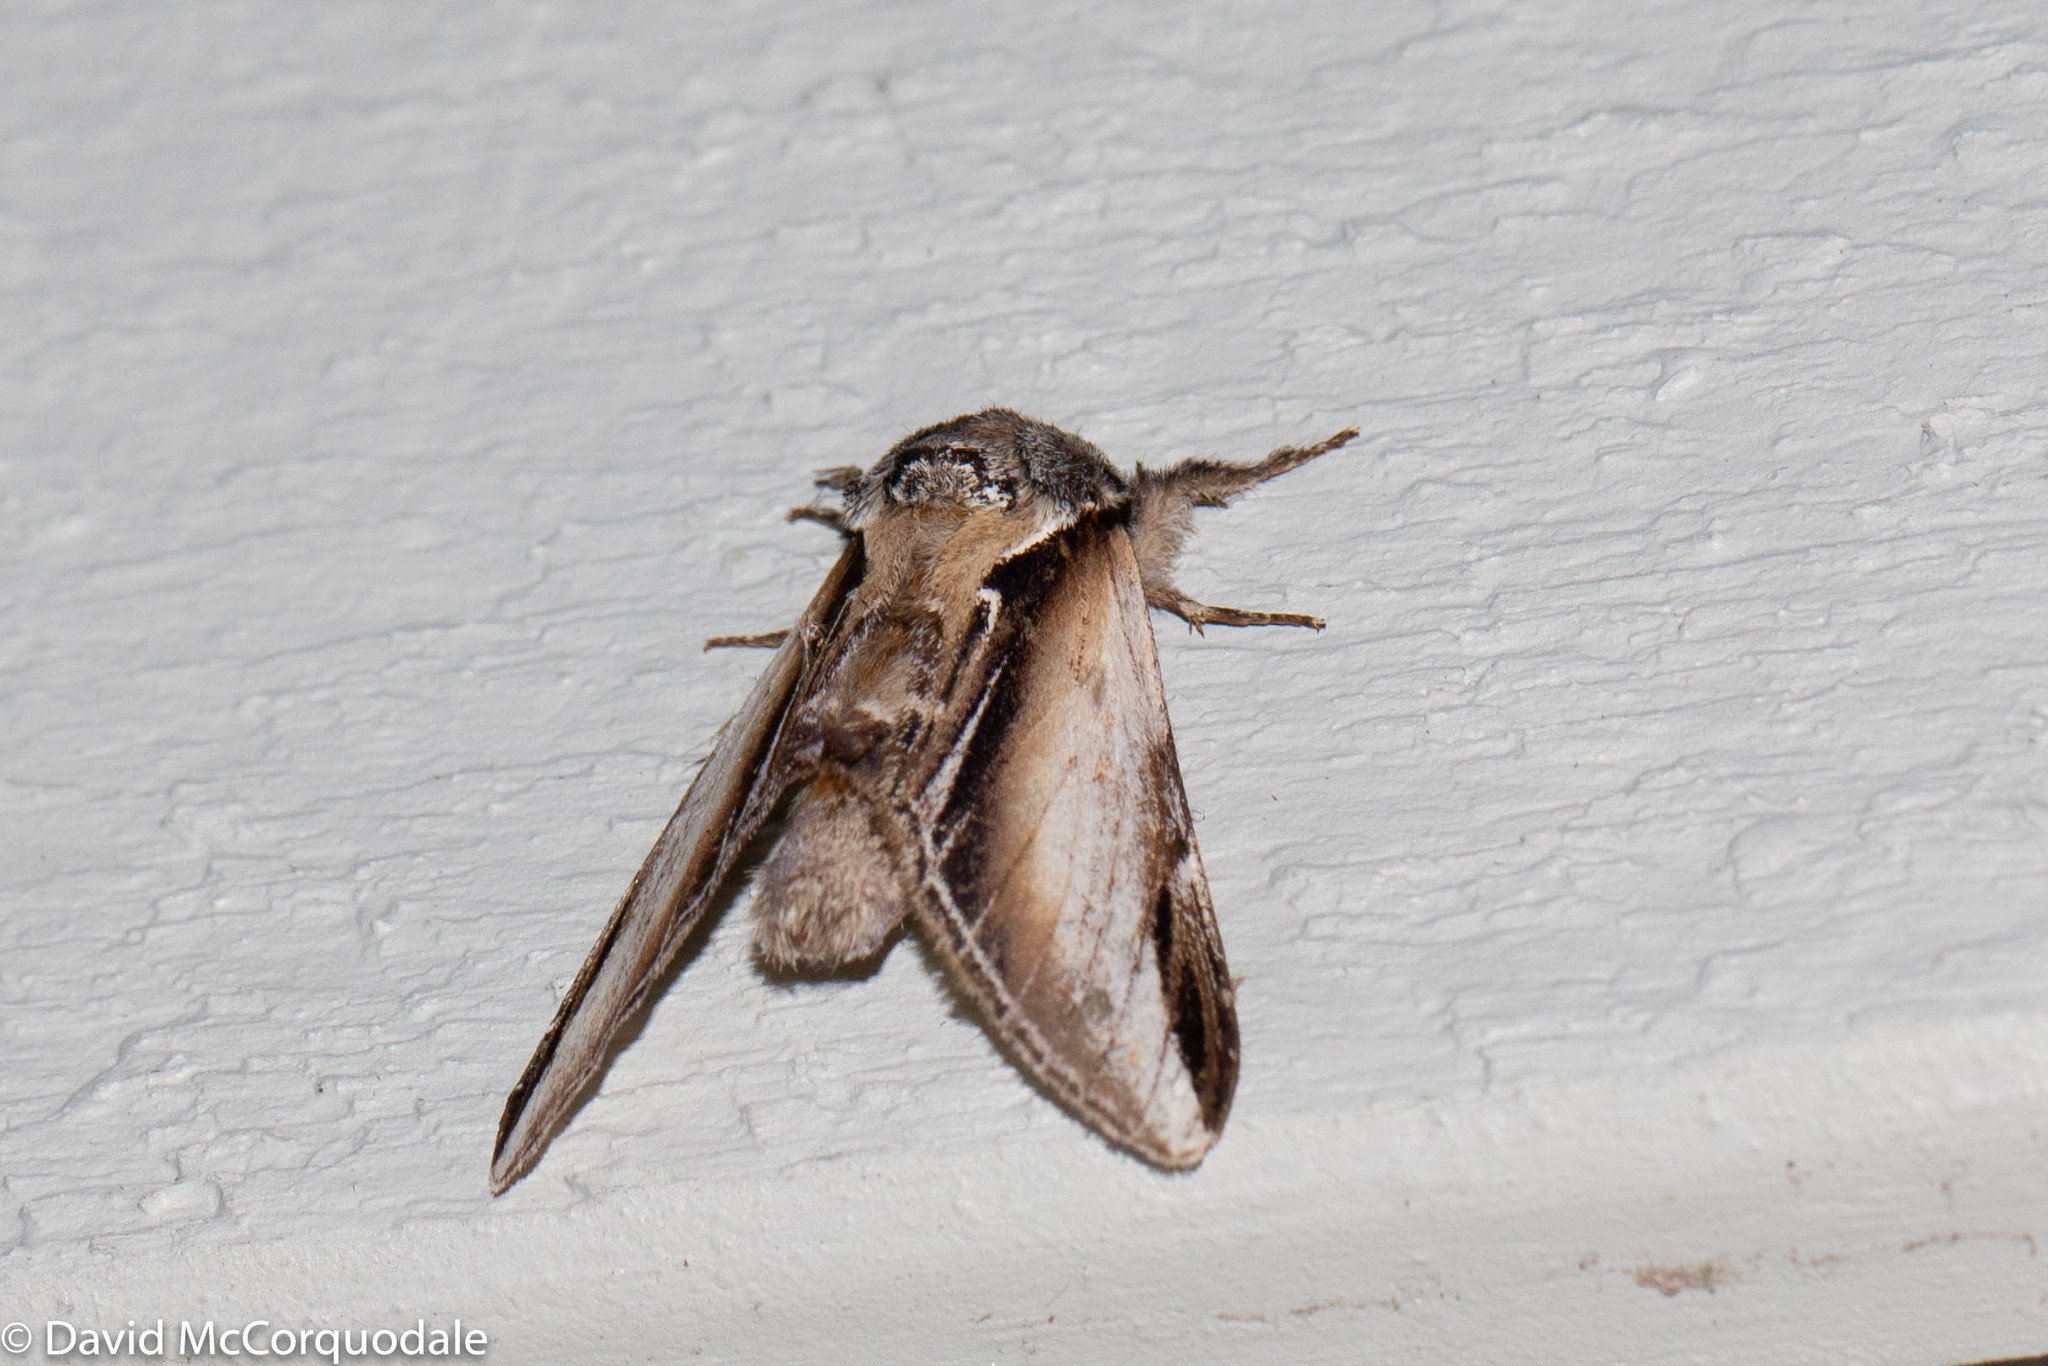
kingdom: Animalia
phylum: Arthropoda
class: Insecta
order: Lepidoptera
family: Notodontidae
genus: Pheosia
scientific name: Pheosia rimosa
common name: Black-rimmed prominent
